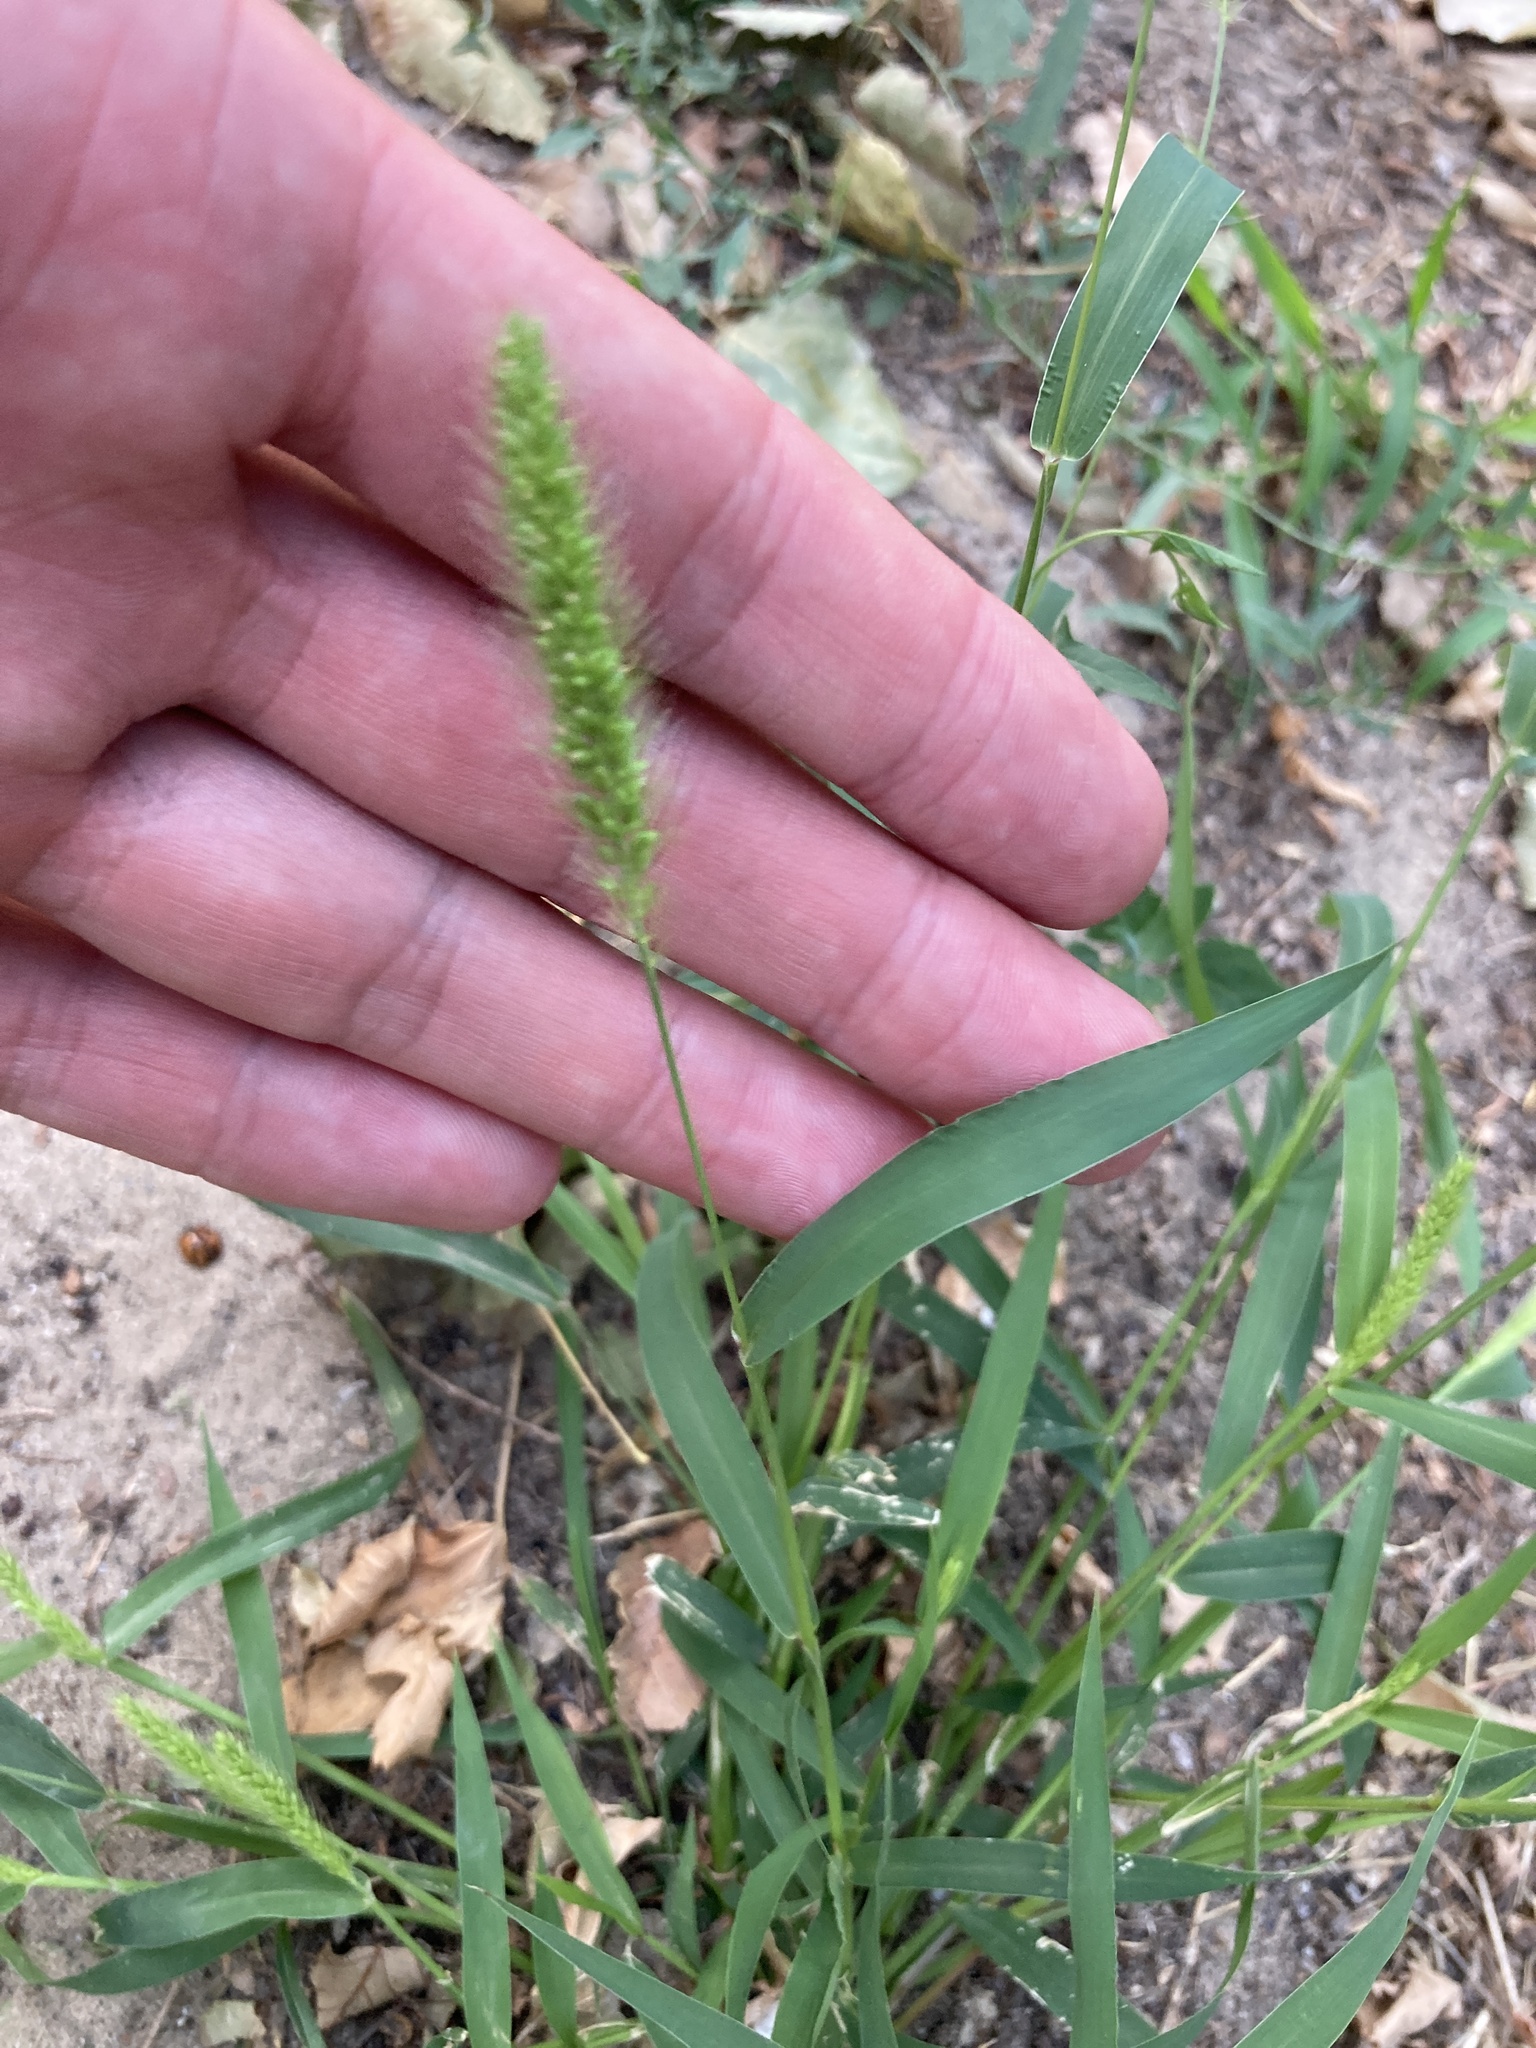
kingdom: Plantae
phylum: Tracheophyta
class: Liliopsida
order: Poales
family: Poaceae
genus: Setaria
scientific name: Setaria viridis
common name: Green bristlegrass
